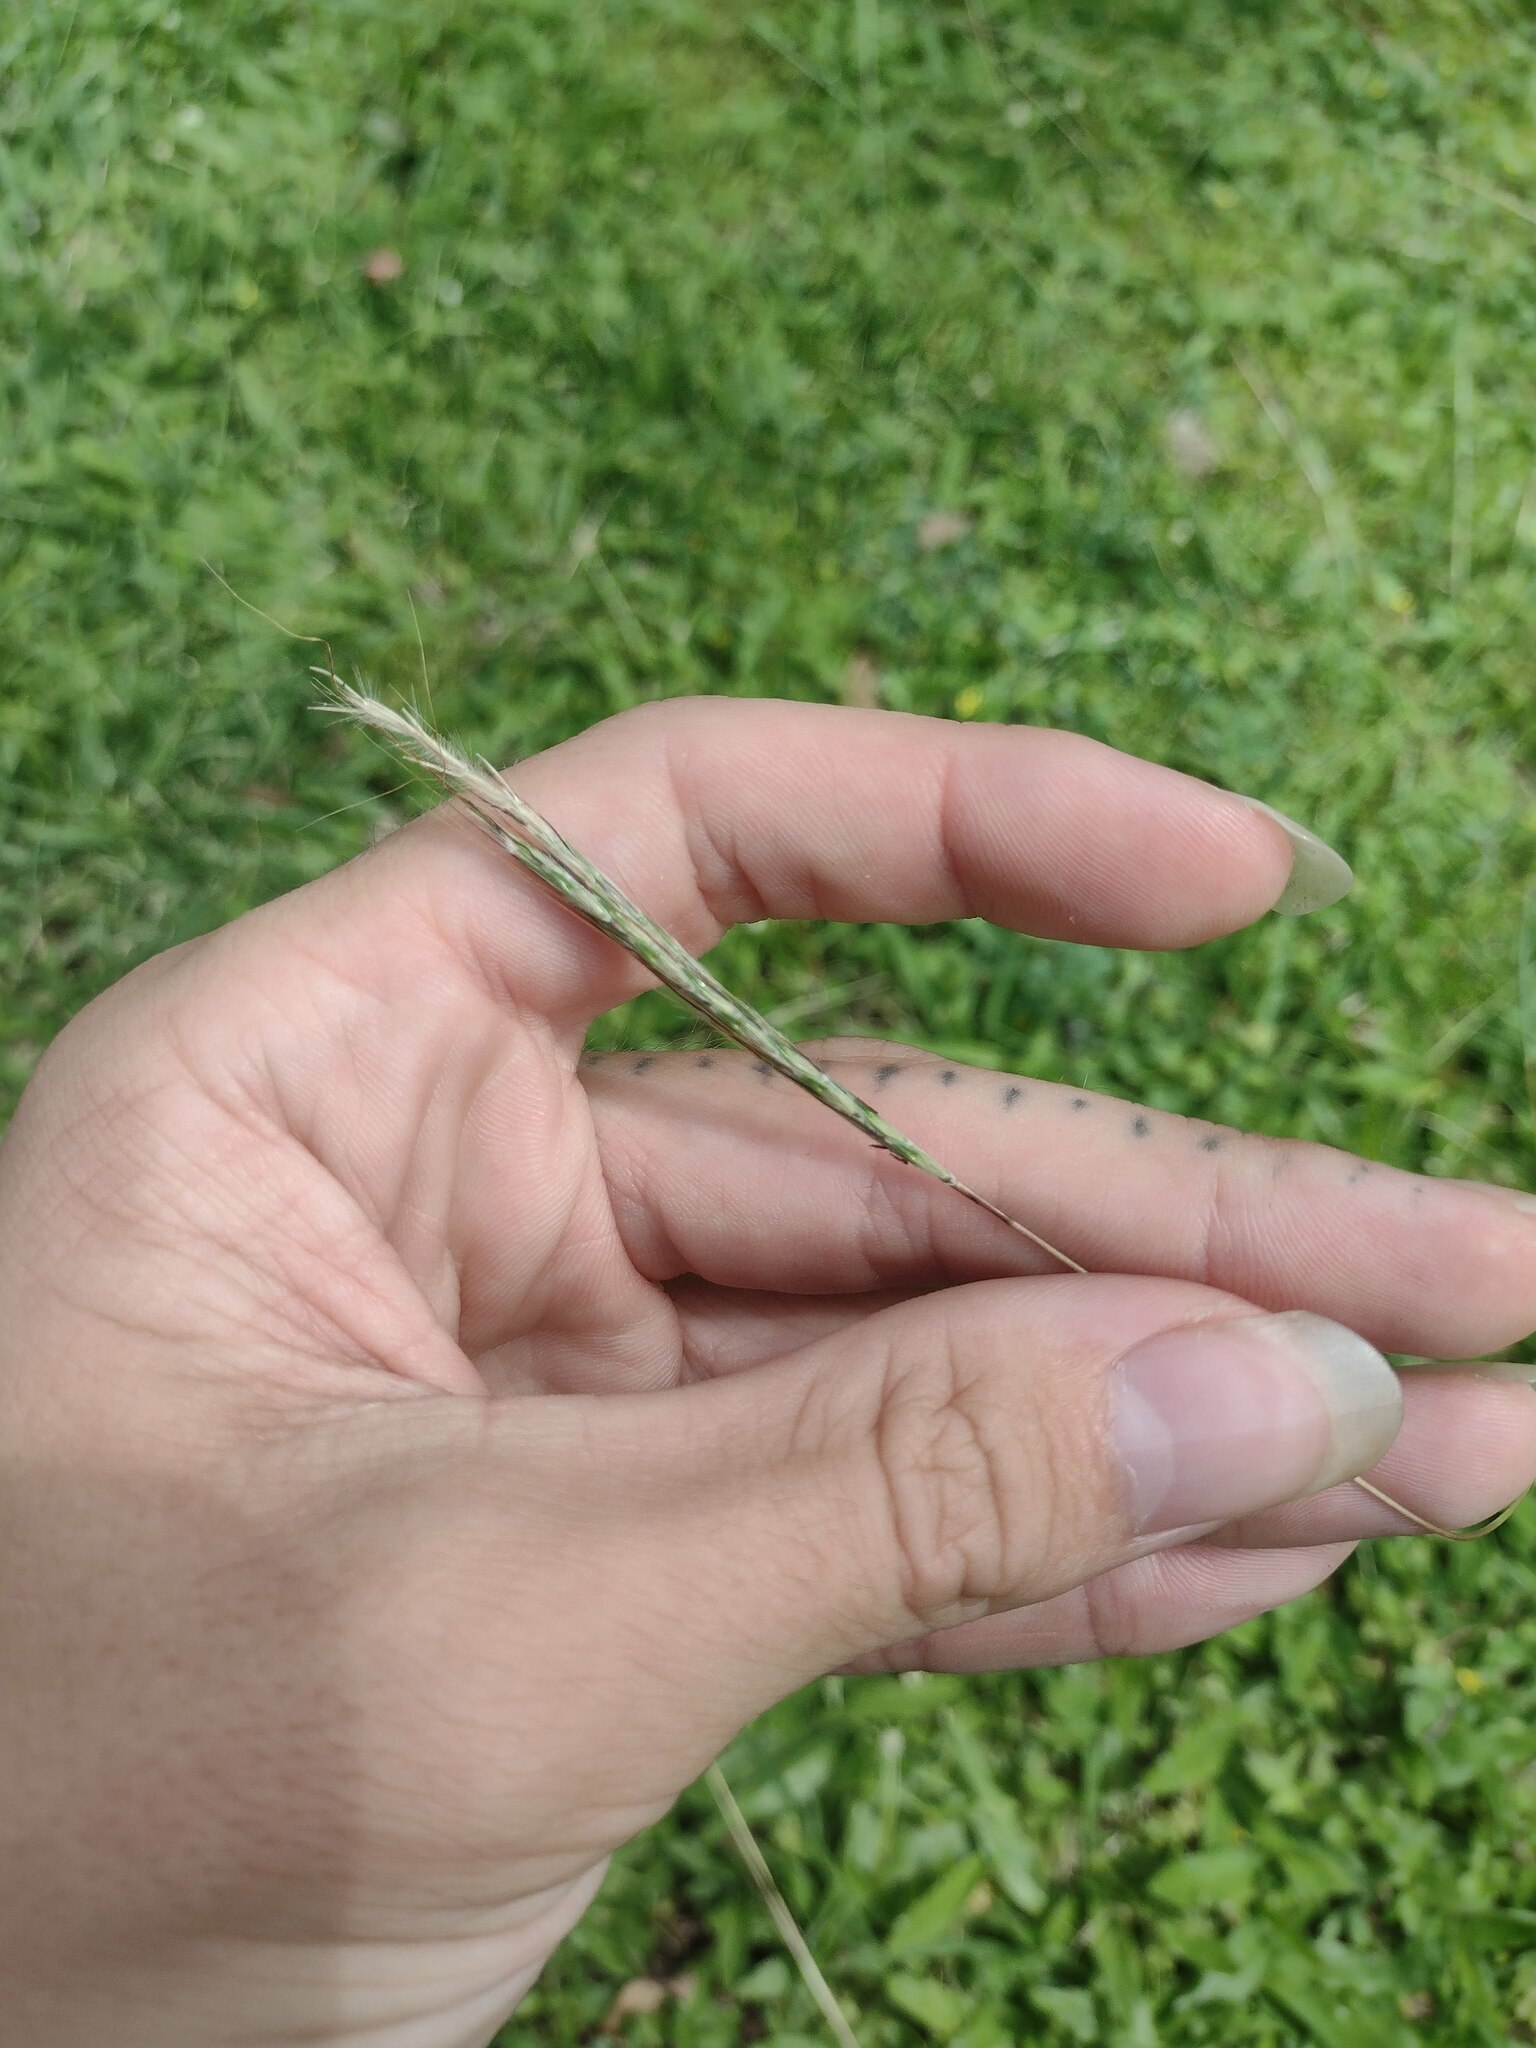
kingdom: Plantae
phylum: Tracheophyta
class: Liliopsida
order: Poales
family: Poaceae
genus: Bothriochloa
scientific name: Bothriochloa macra
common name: Pitted beard grass
